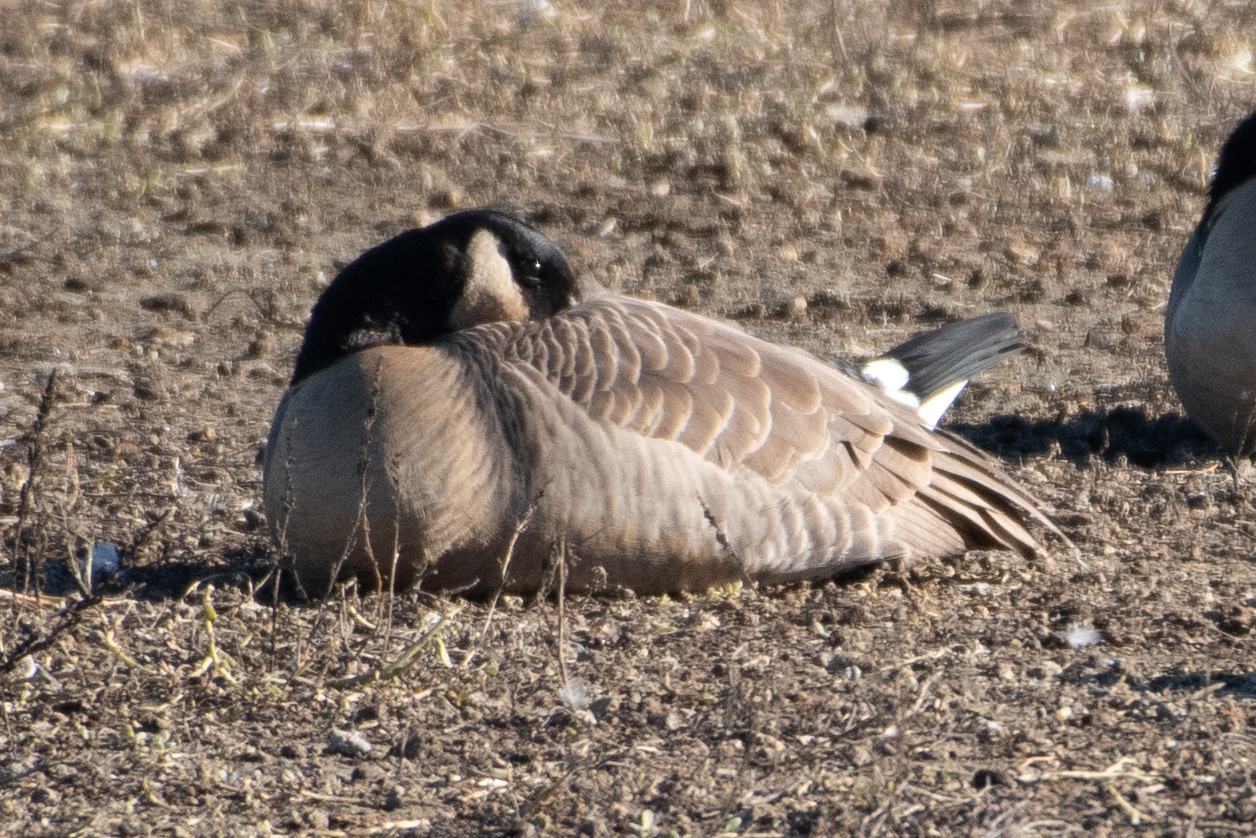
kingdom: Animalia
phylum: Chordata
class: Aves
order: Anseriformes
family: Anatidae
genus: Branta
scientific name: Branta canadensis
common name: Canada goose
